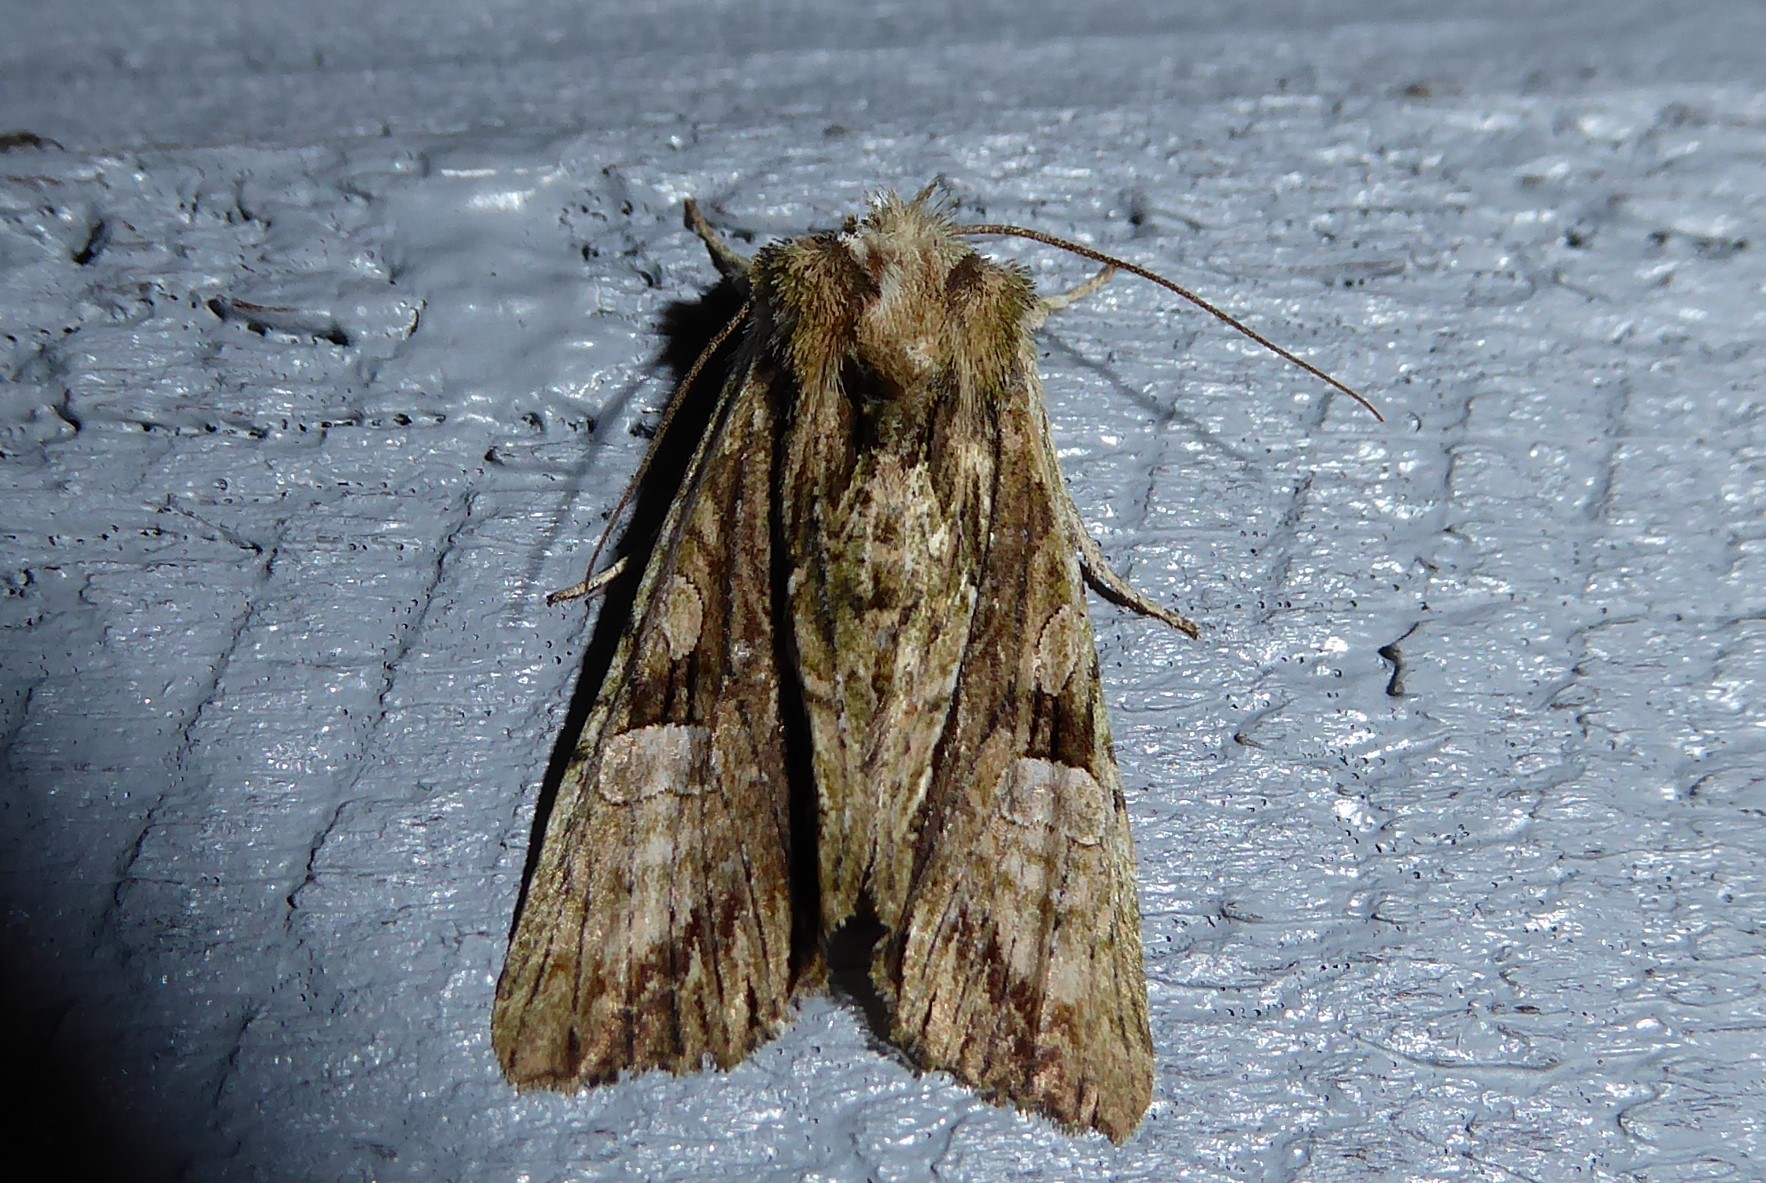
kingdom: Animalia
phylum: Arthropoda
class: Insecta
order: Lepidoptera
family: Noctuidae
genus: Meterana
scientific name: Meterana decorata
